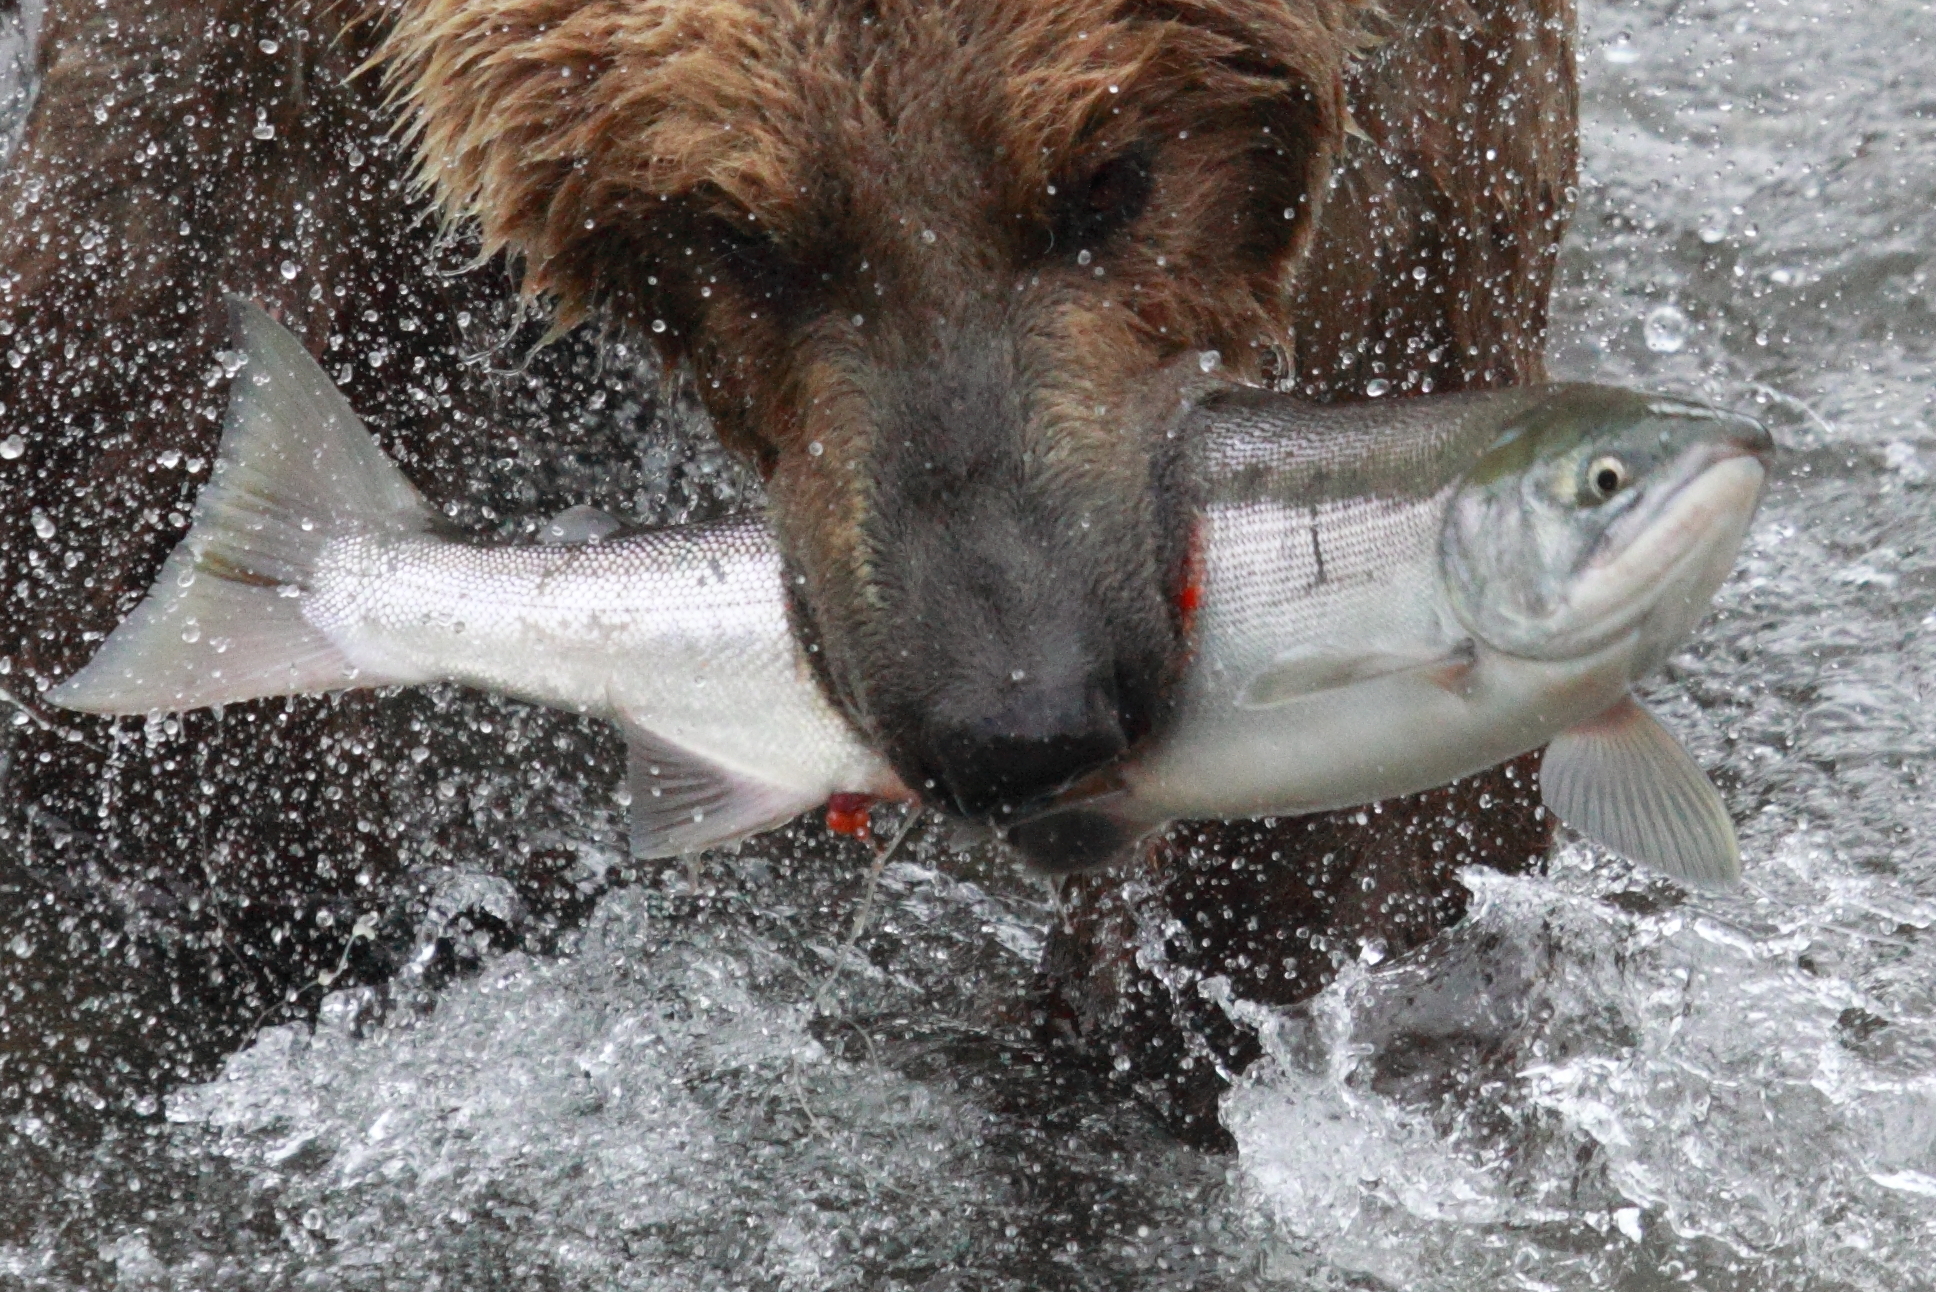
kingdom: Animalia
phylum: Chordata
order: Salmoniformes
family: Salmonidae
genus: Oncorhynchus
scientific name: Oncorhynchus nerka
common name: Sockeye salmon
